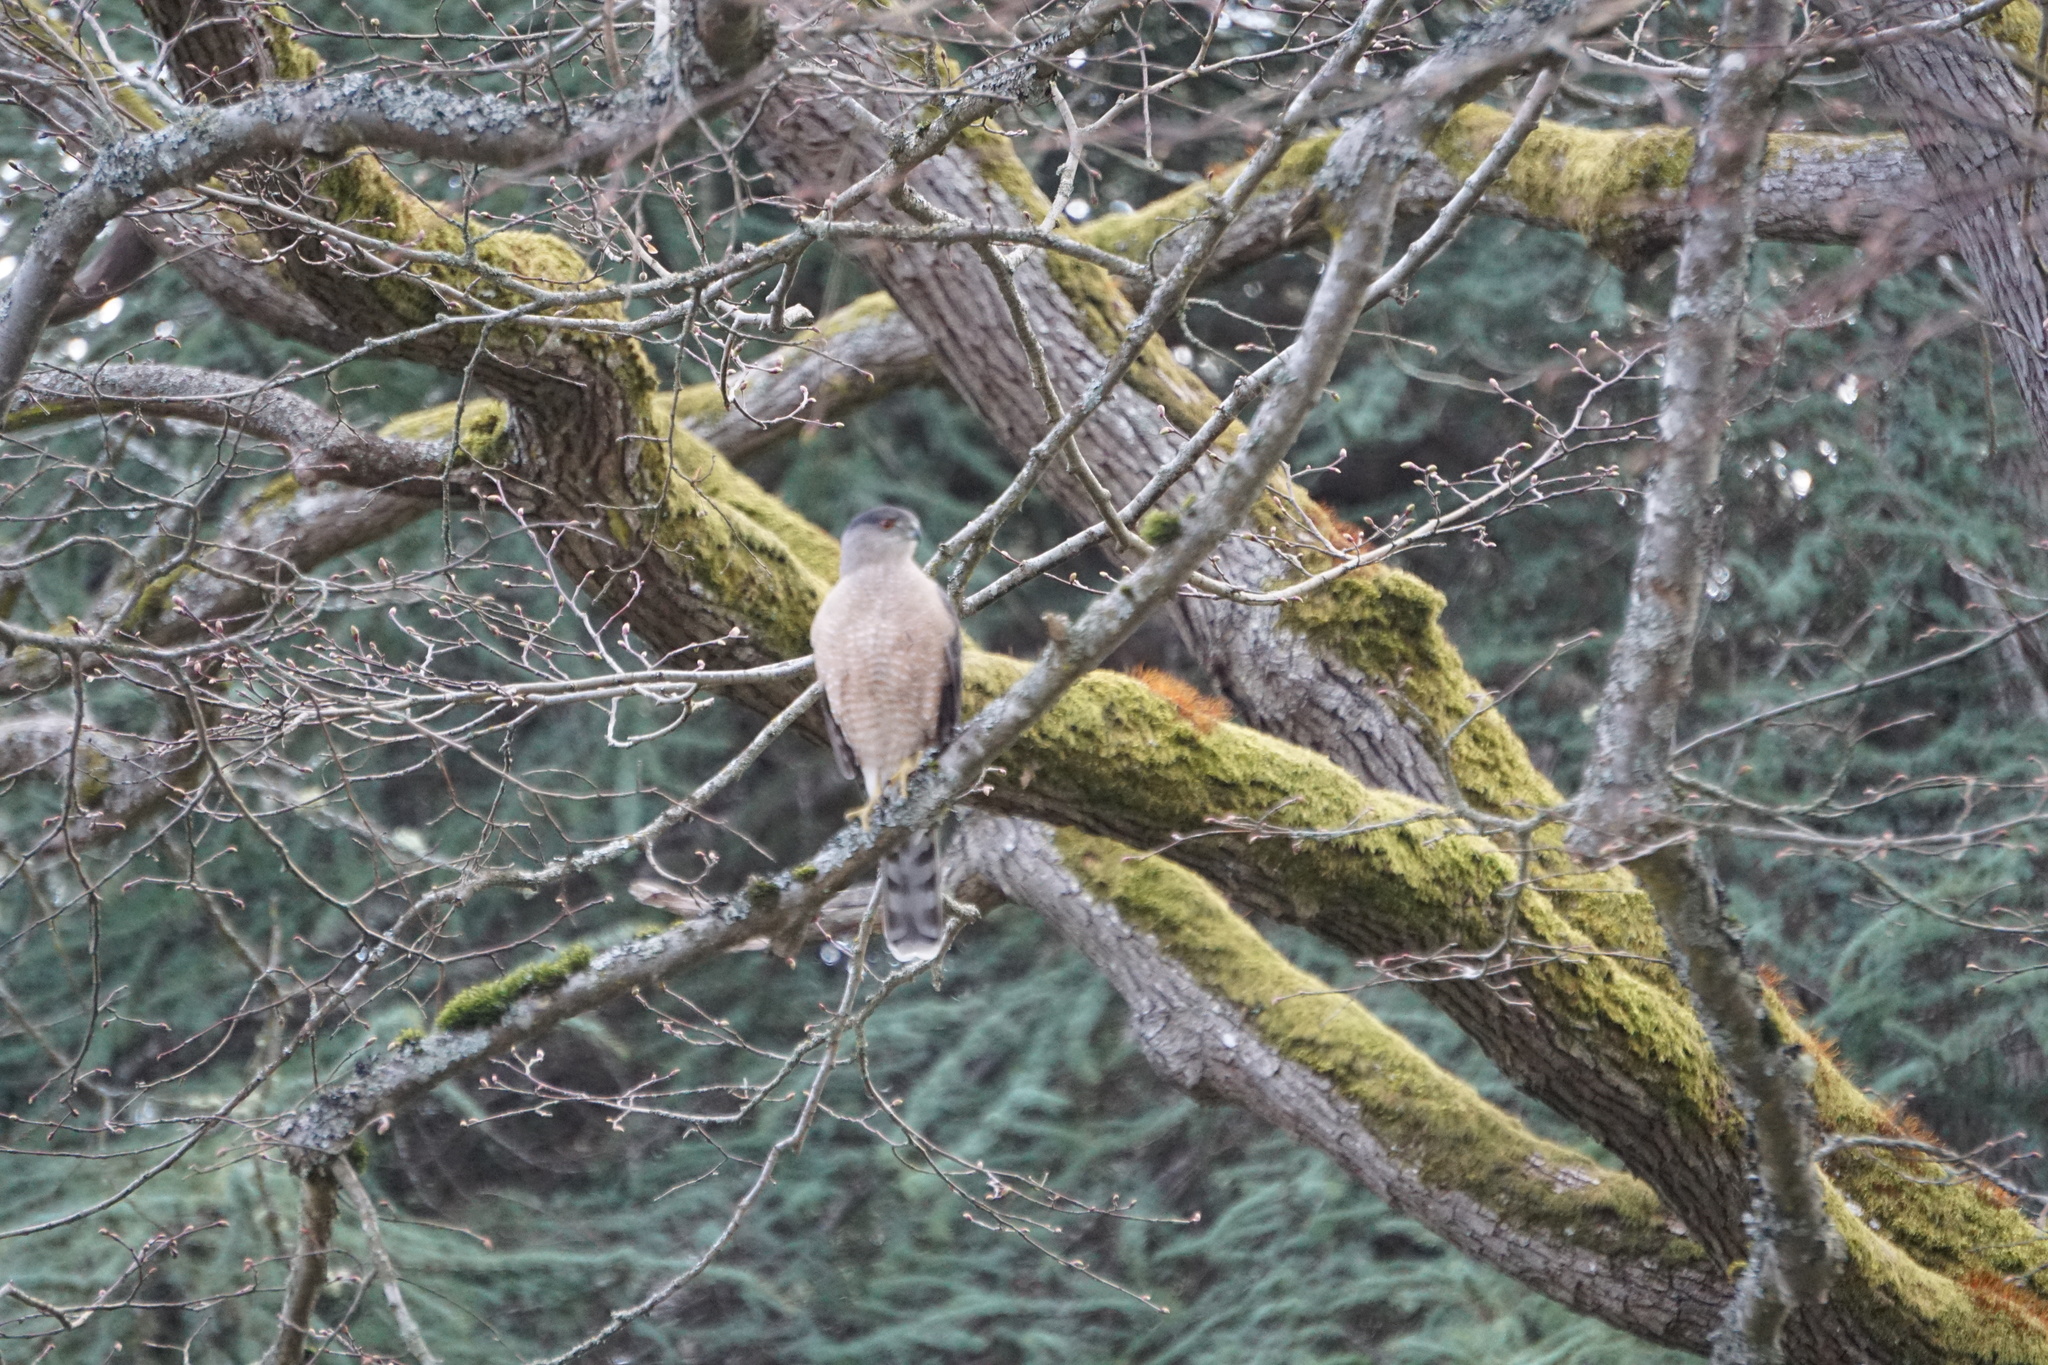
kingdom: Animalia
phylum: Chordata
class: Aves
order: Accipitriformes
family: Accipitridae
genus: Accipiter
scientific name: Accipiter cooperii
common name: Cooper's hawk
